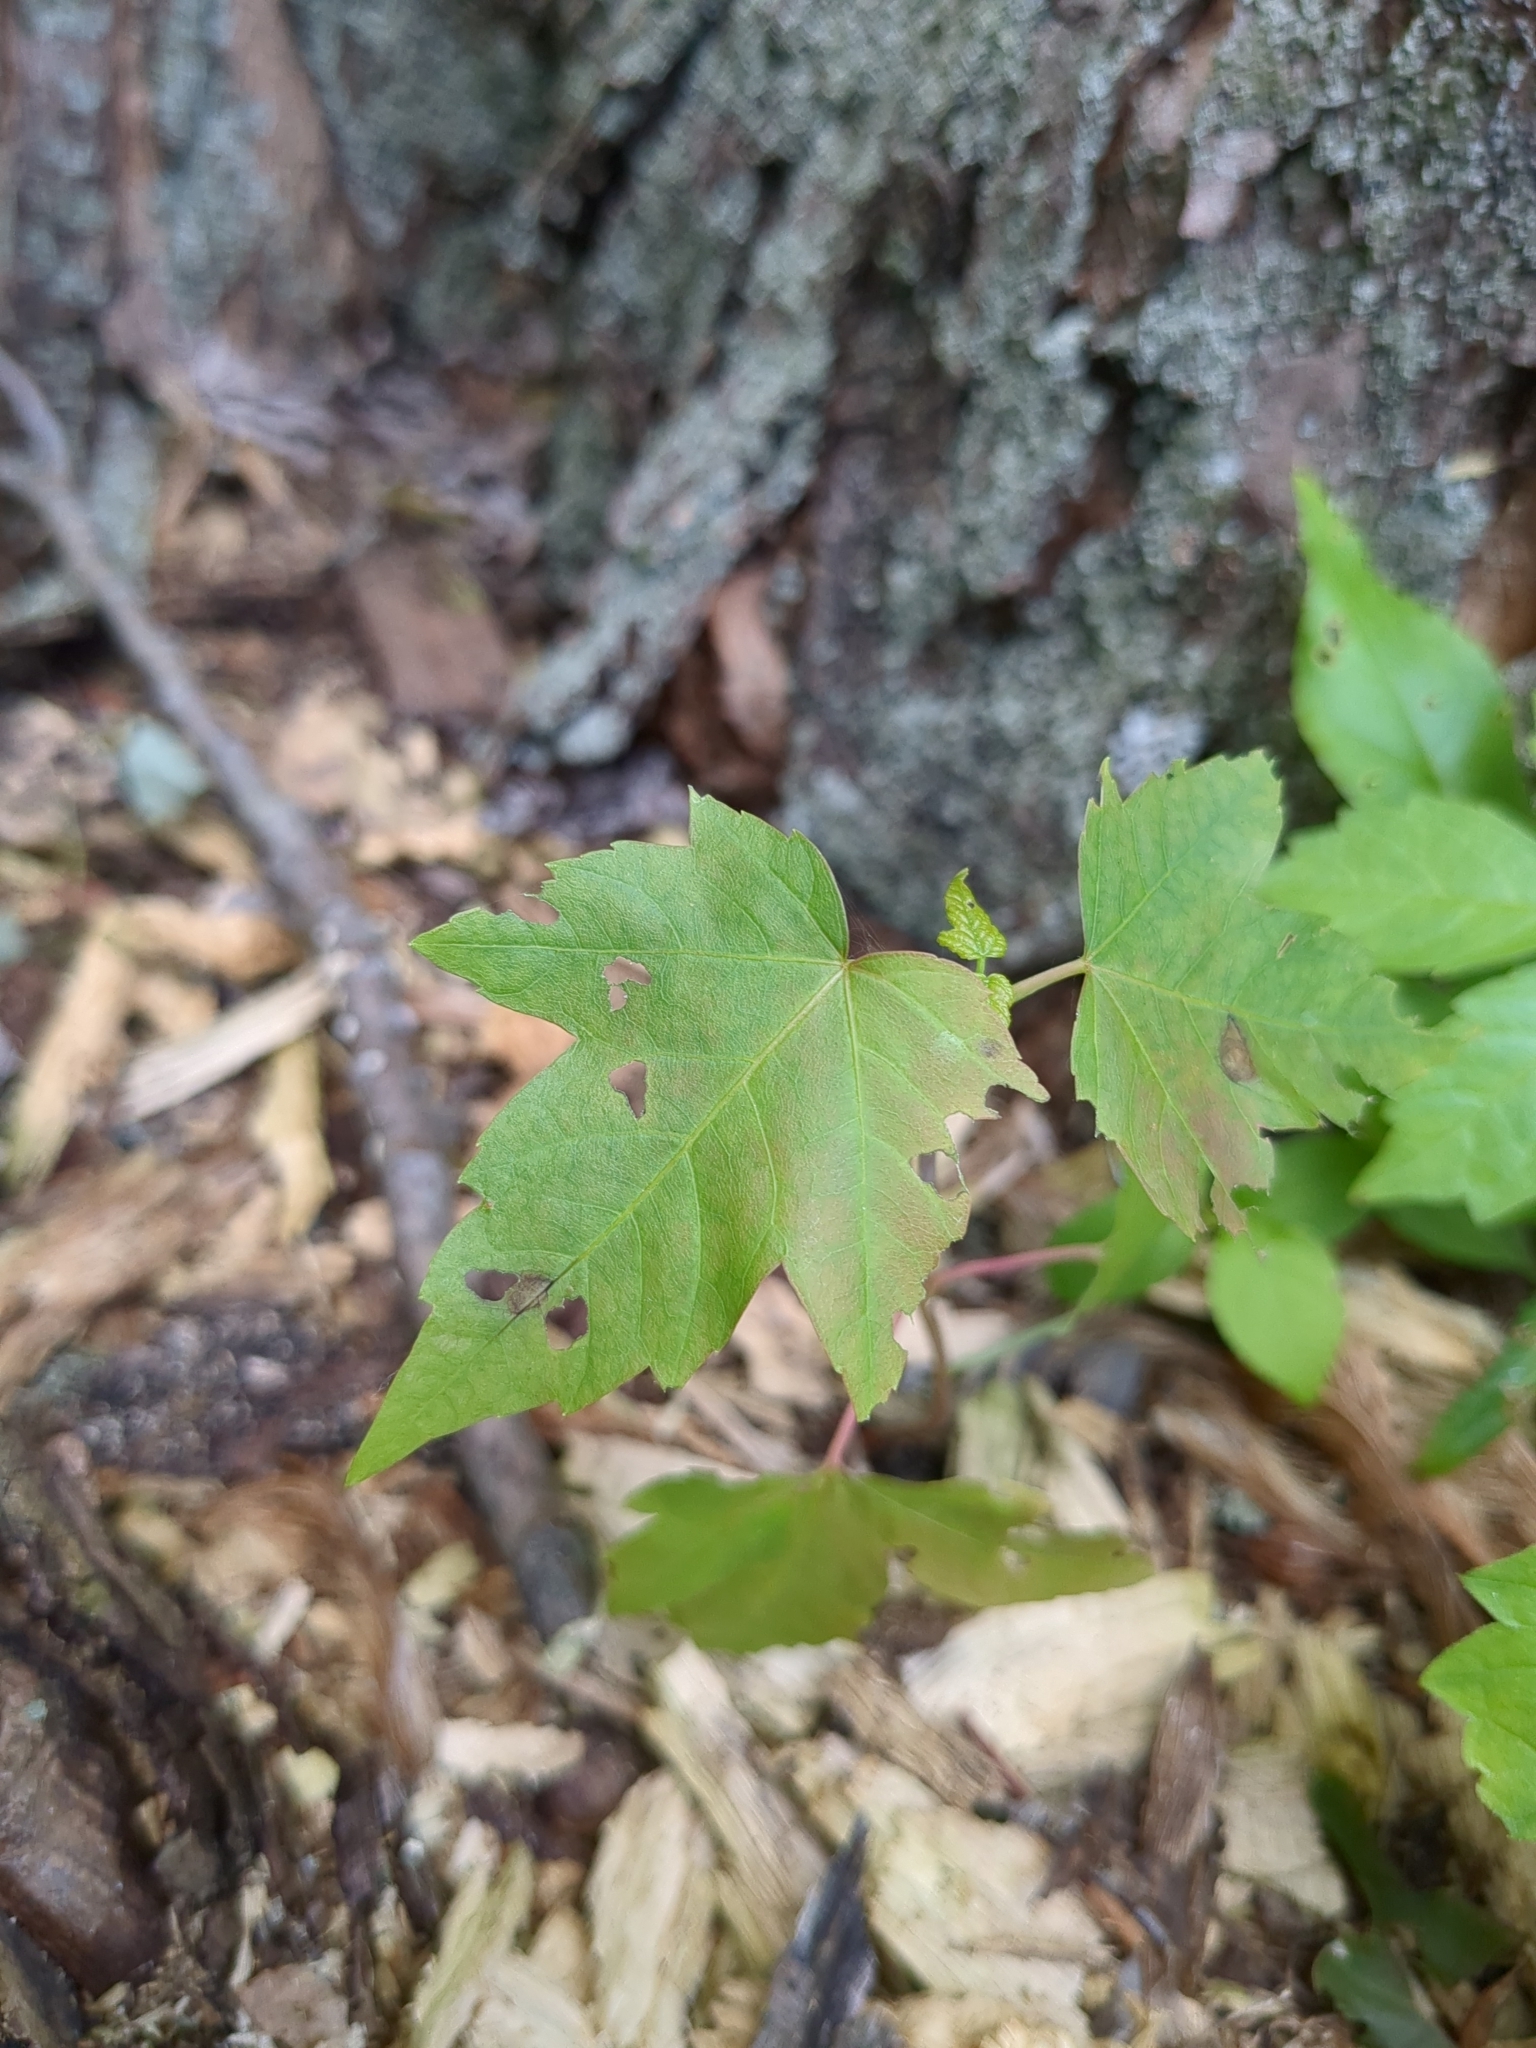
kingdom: Plantae
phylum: Tracheophyta
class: Magnoliopsida
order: Sapindales
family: Sapindaceae
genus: Acer
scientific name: Acer rubrum
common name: Red maple
